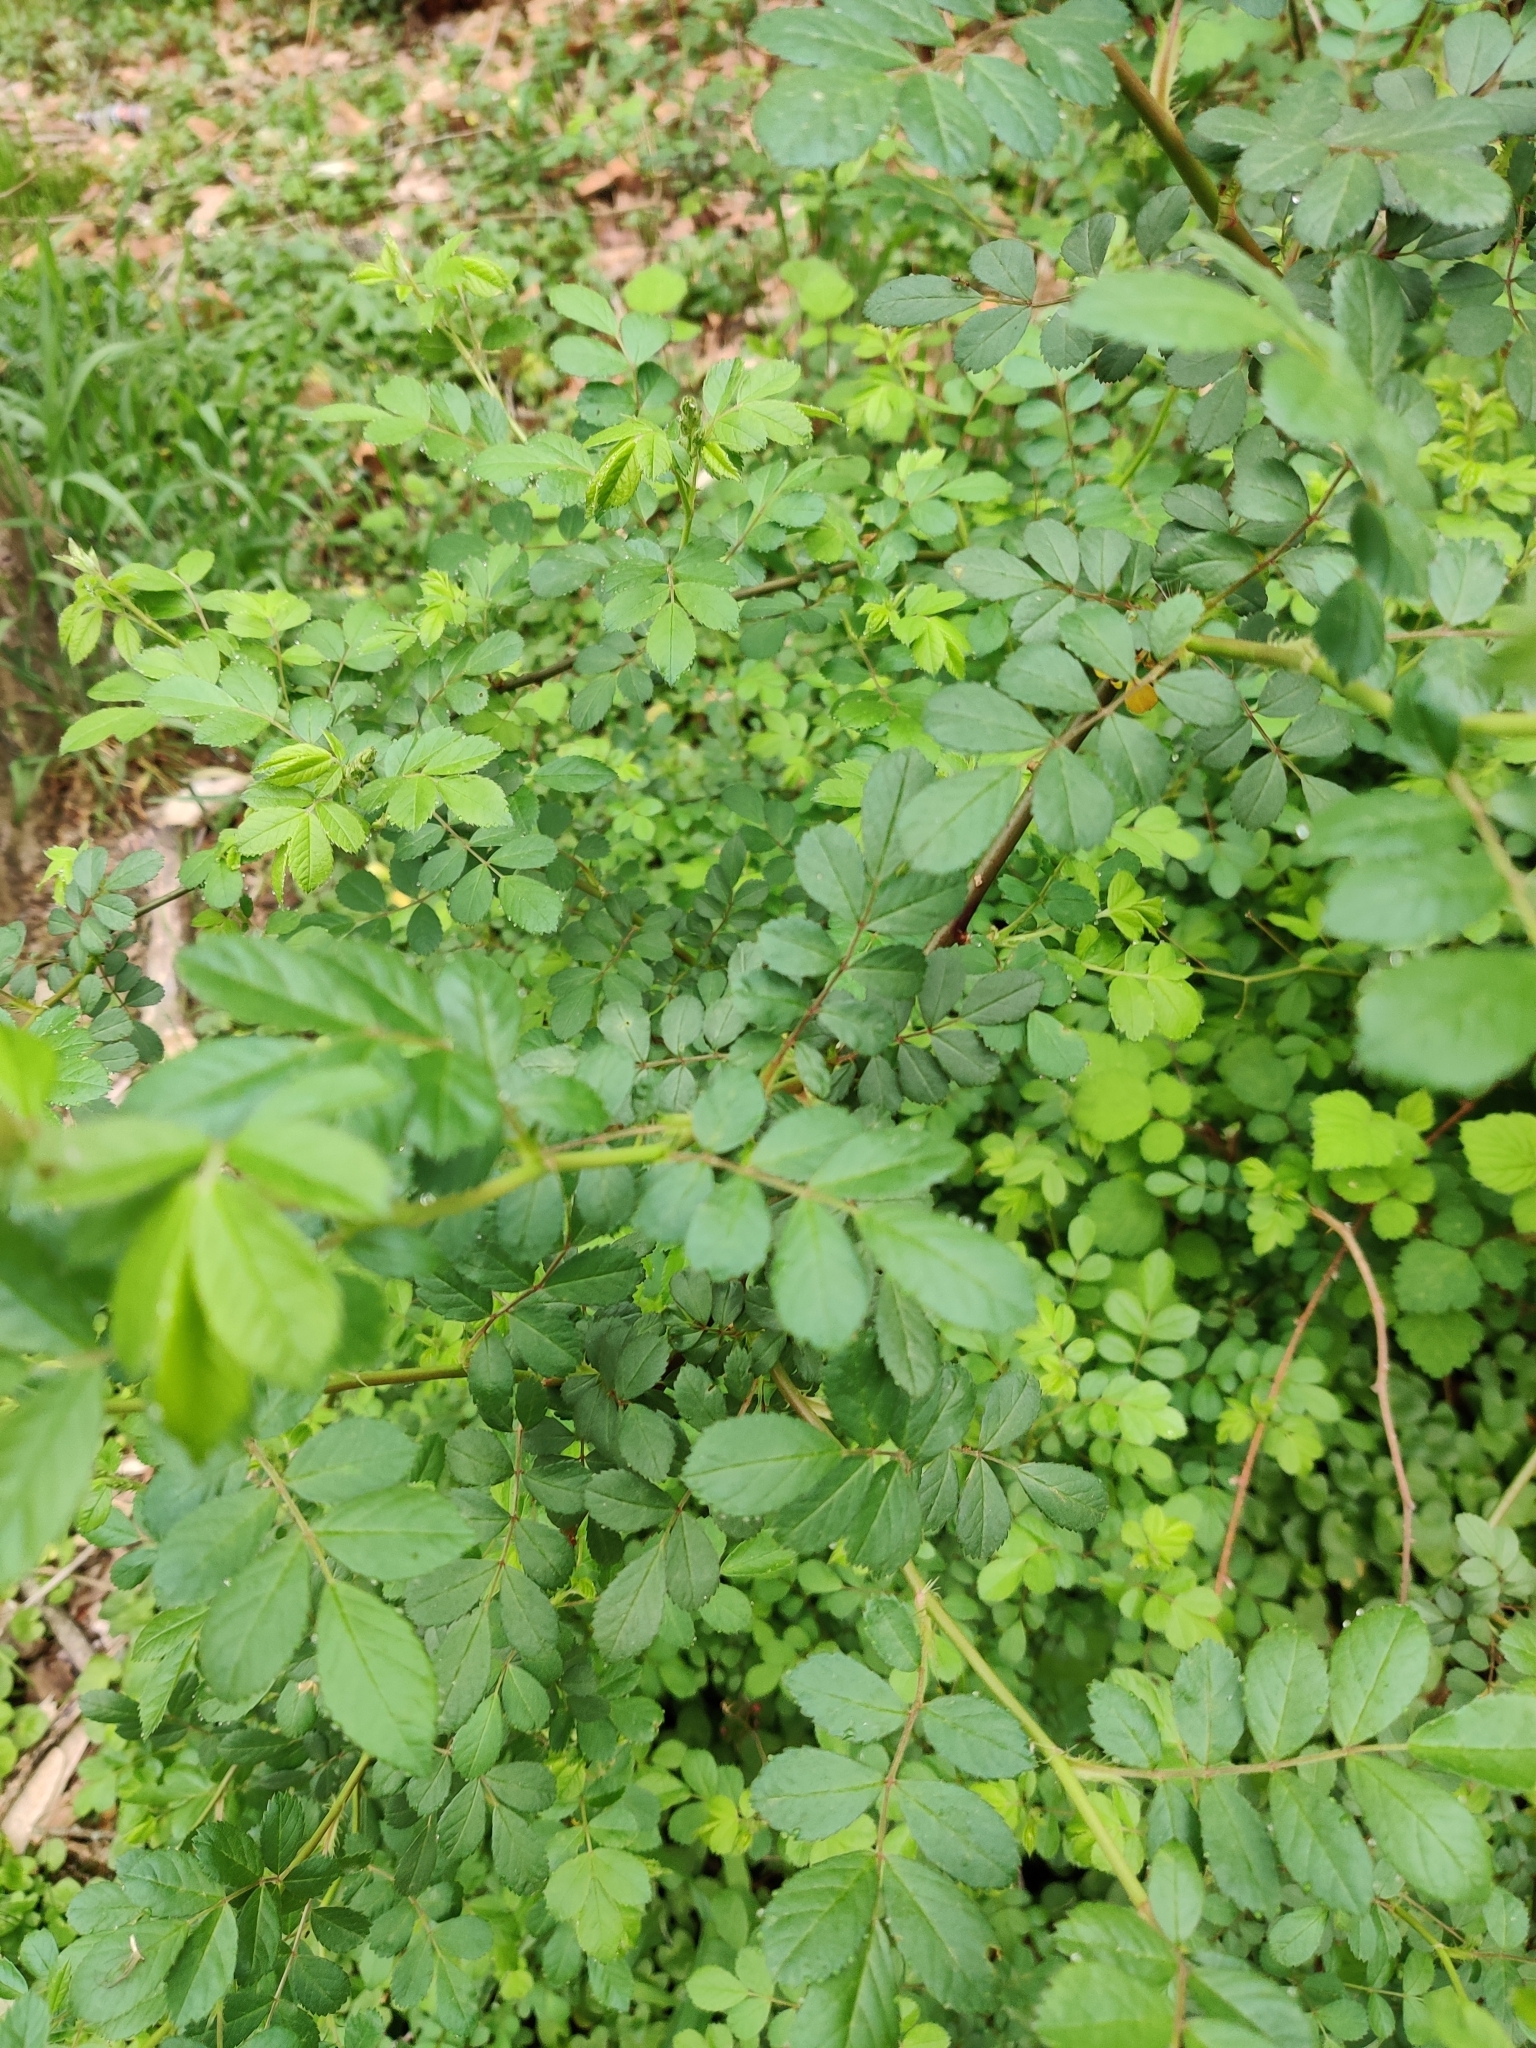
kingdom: Plantae
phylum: Tracheophyta
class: Magnoliopsida
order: Rosales
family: Rosaceae
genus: Rosa
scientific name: Rosa multiflora
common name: Multiflora rose
